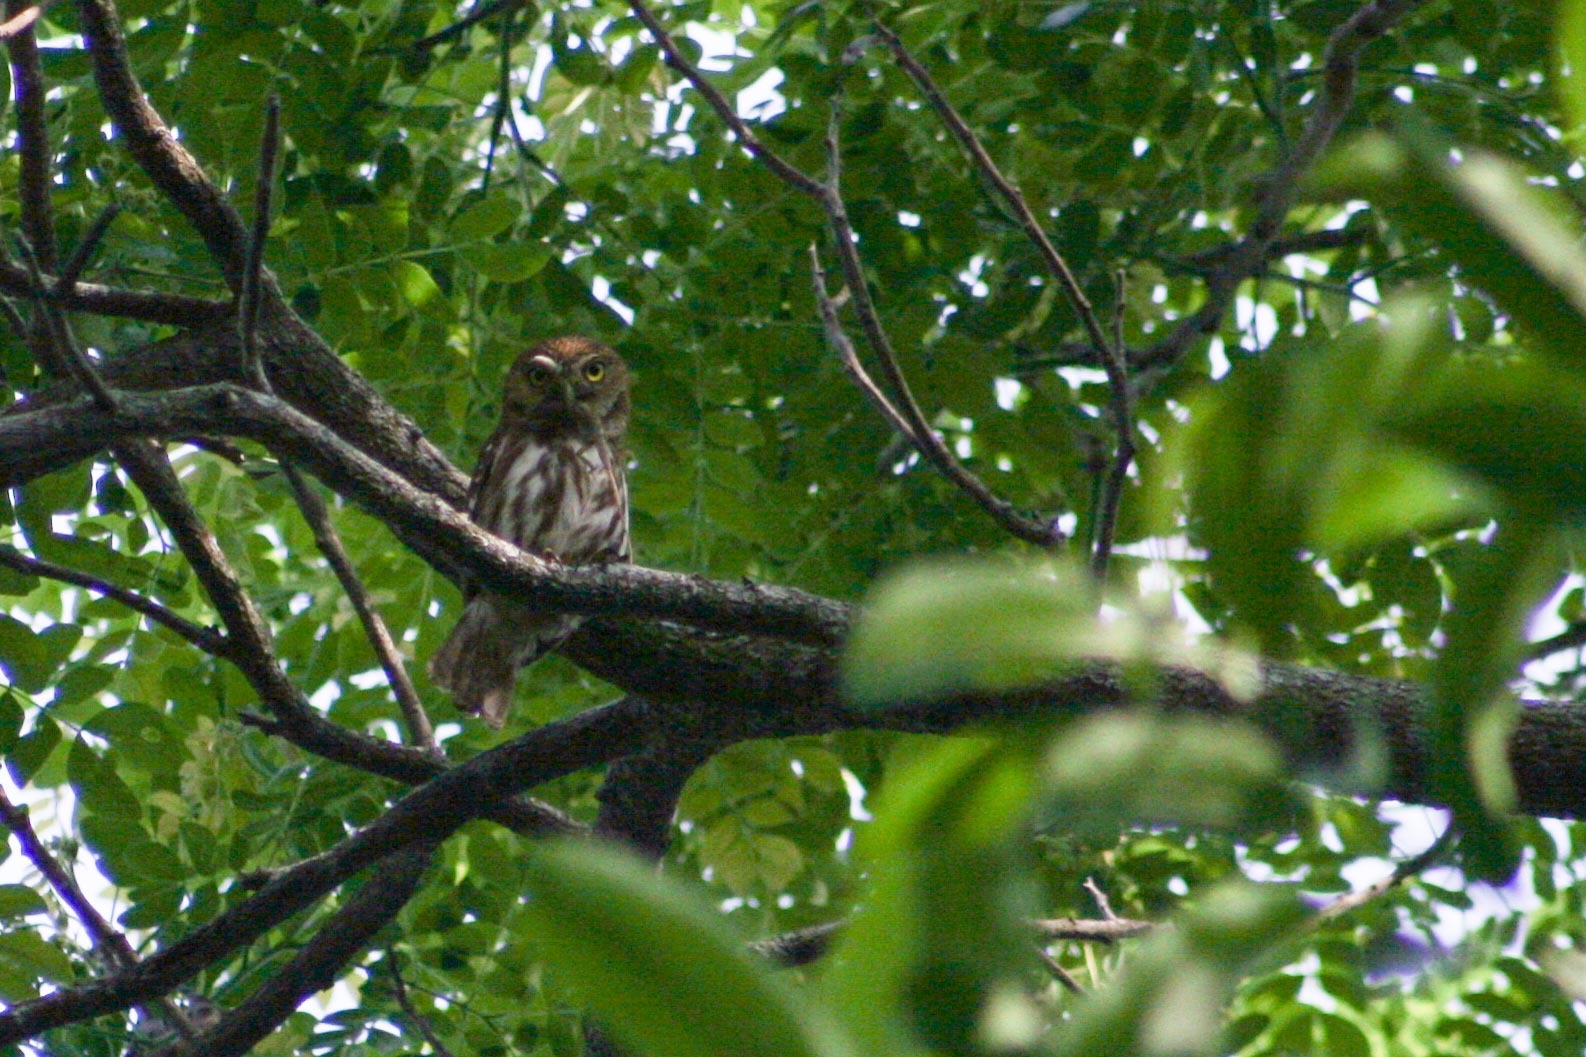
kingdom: Animalia
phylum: Chordata
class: Aves
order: Strigiformes
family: Strigidae
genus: Glaucidium
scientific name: Glaucidium brasilianum
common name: Ferruginous pygmy-owl
